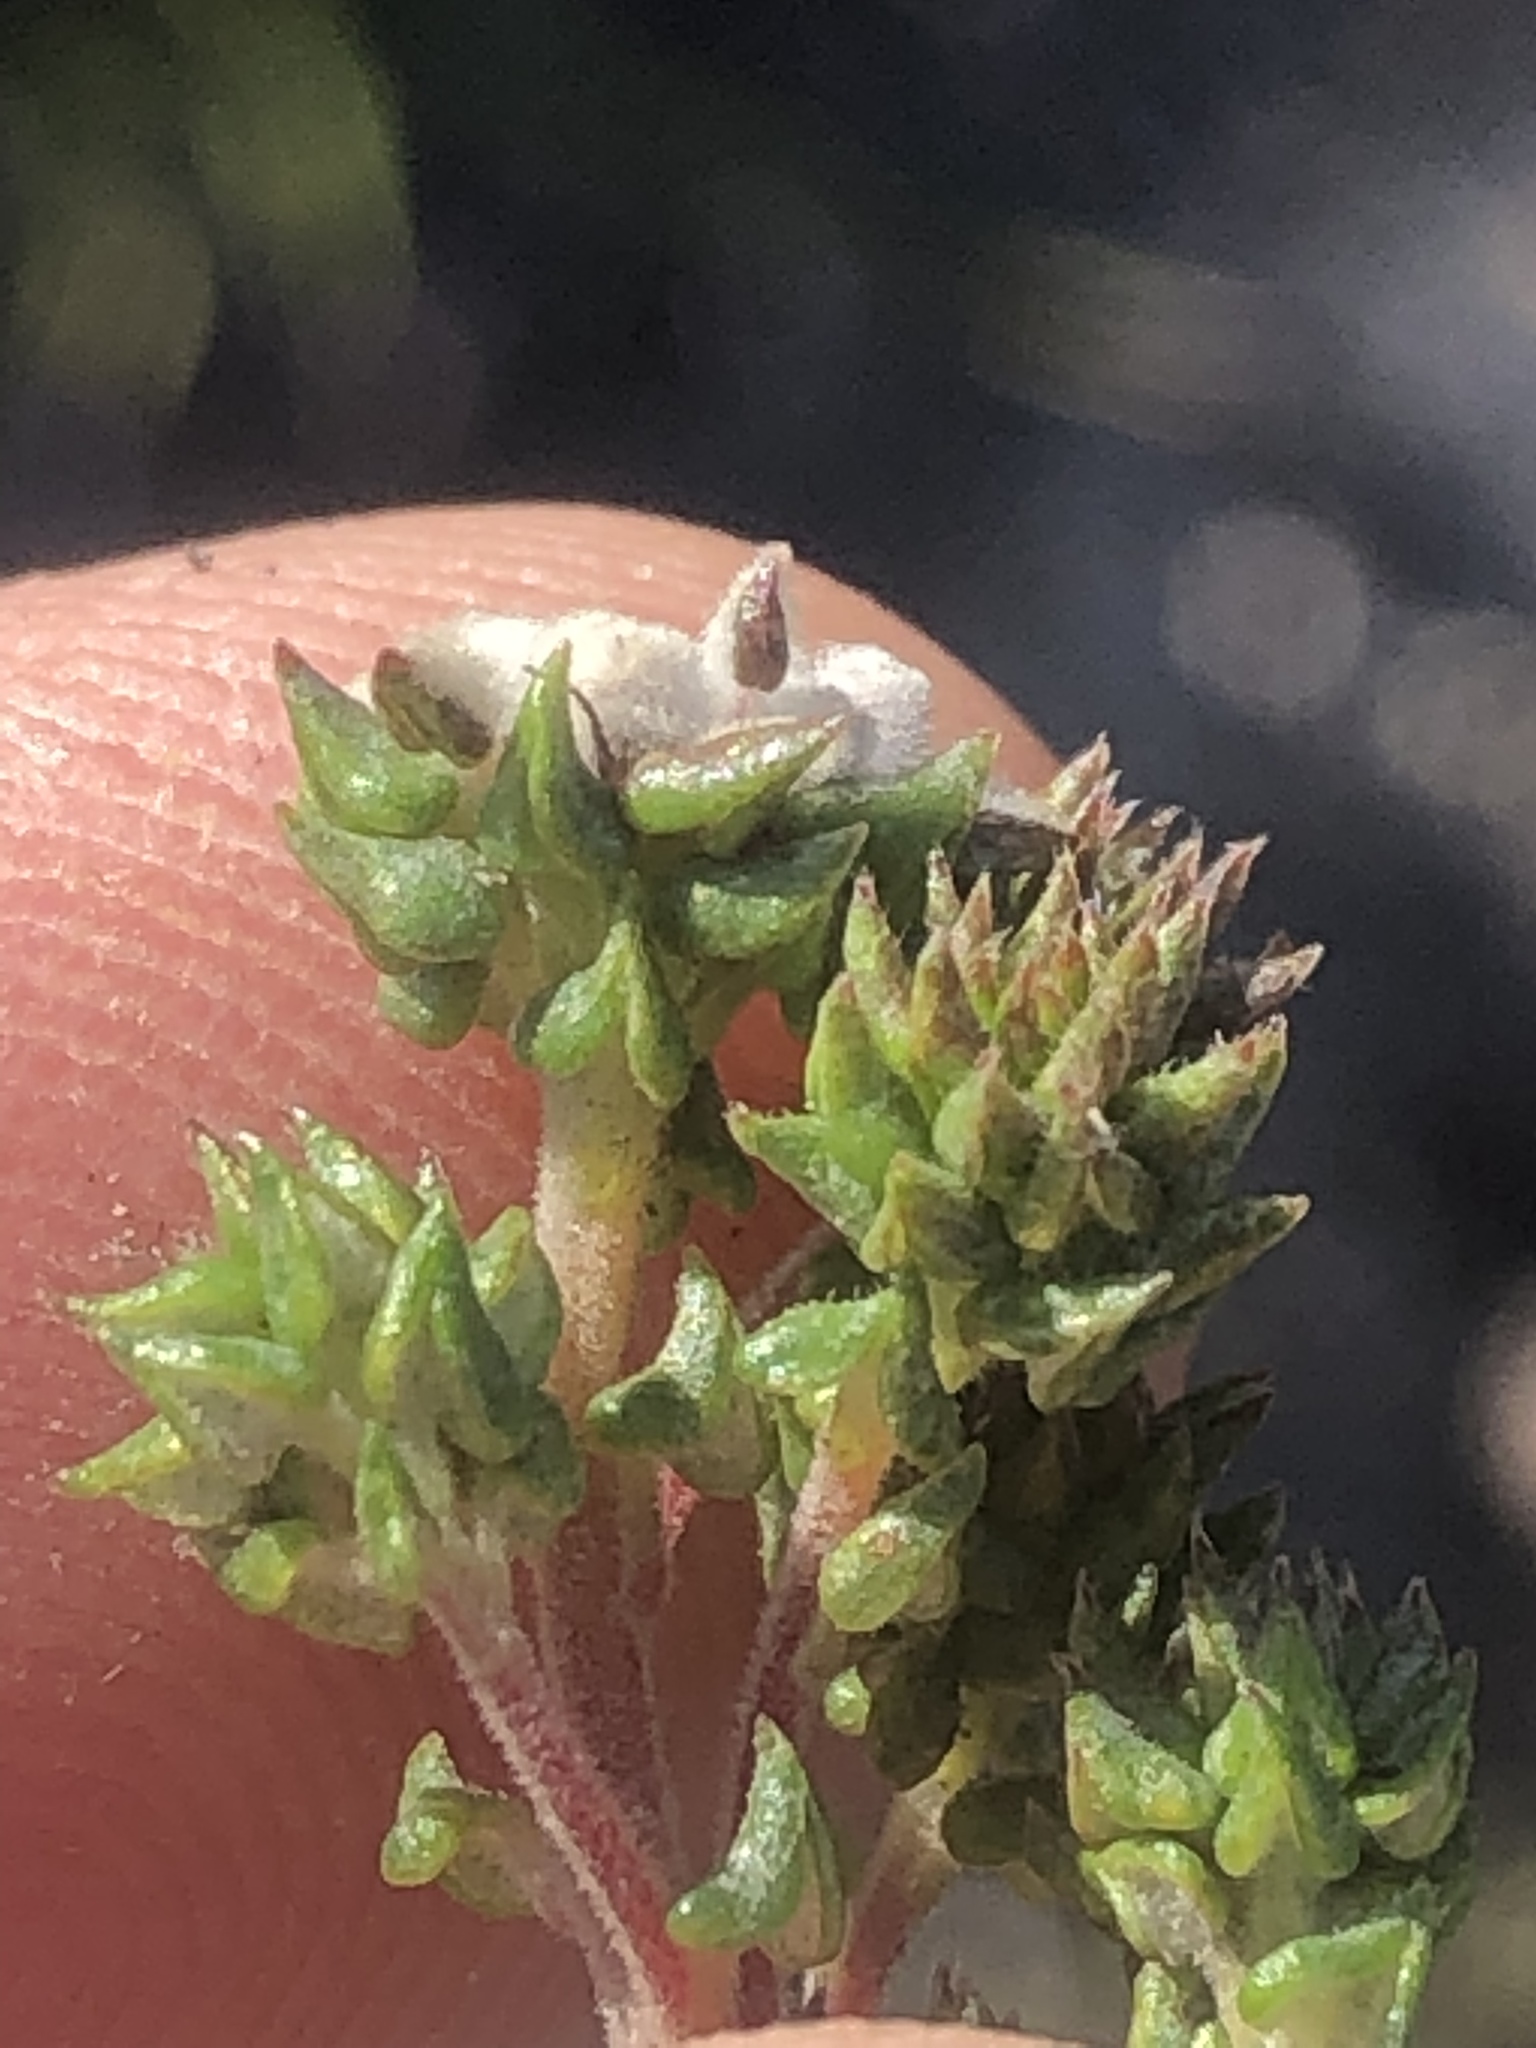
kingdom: Plantae
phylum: Tracheophyta
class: Magnoliopsida
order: Rosales
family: Rhamnaceae
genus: Phylica
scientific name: Phylica debilis
